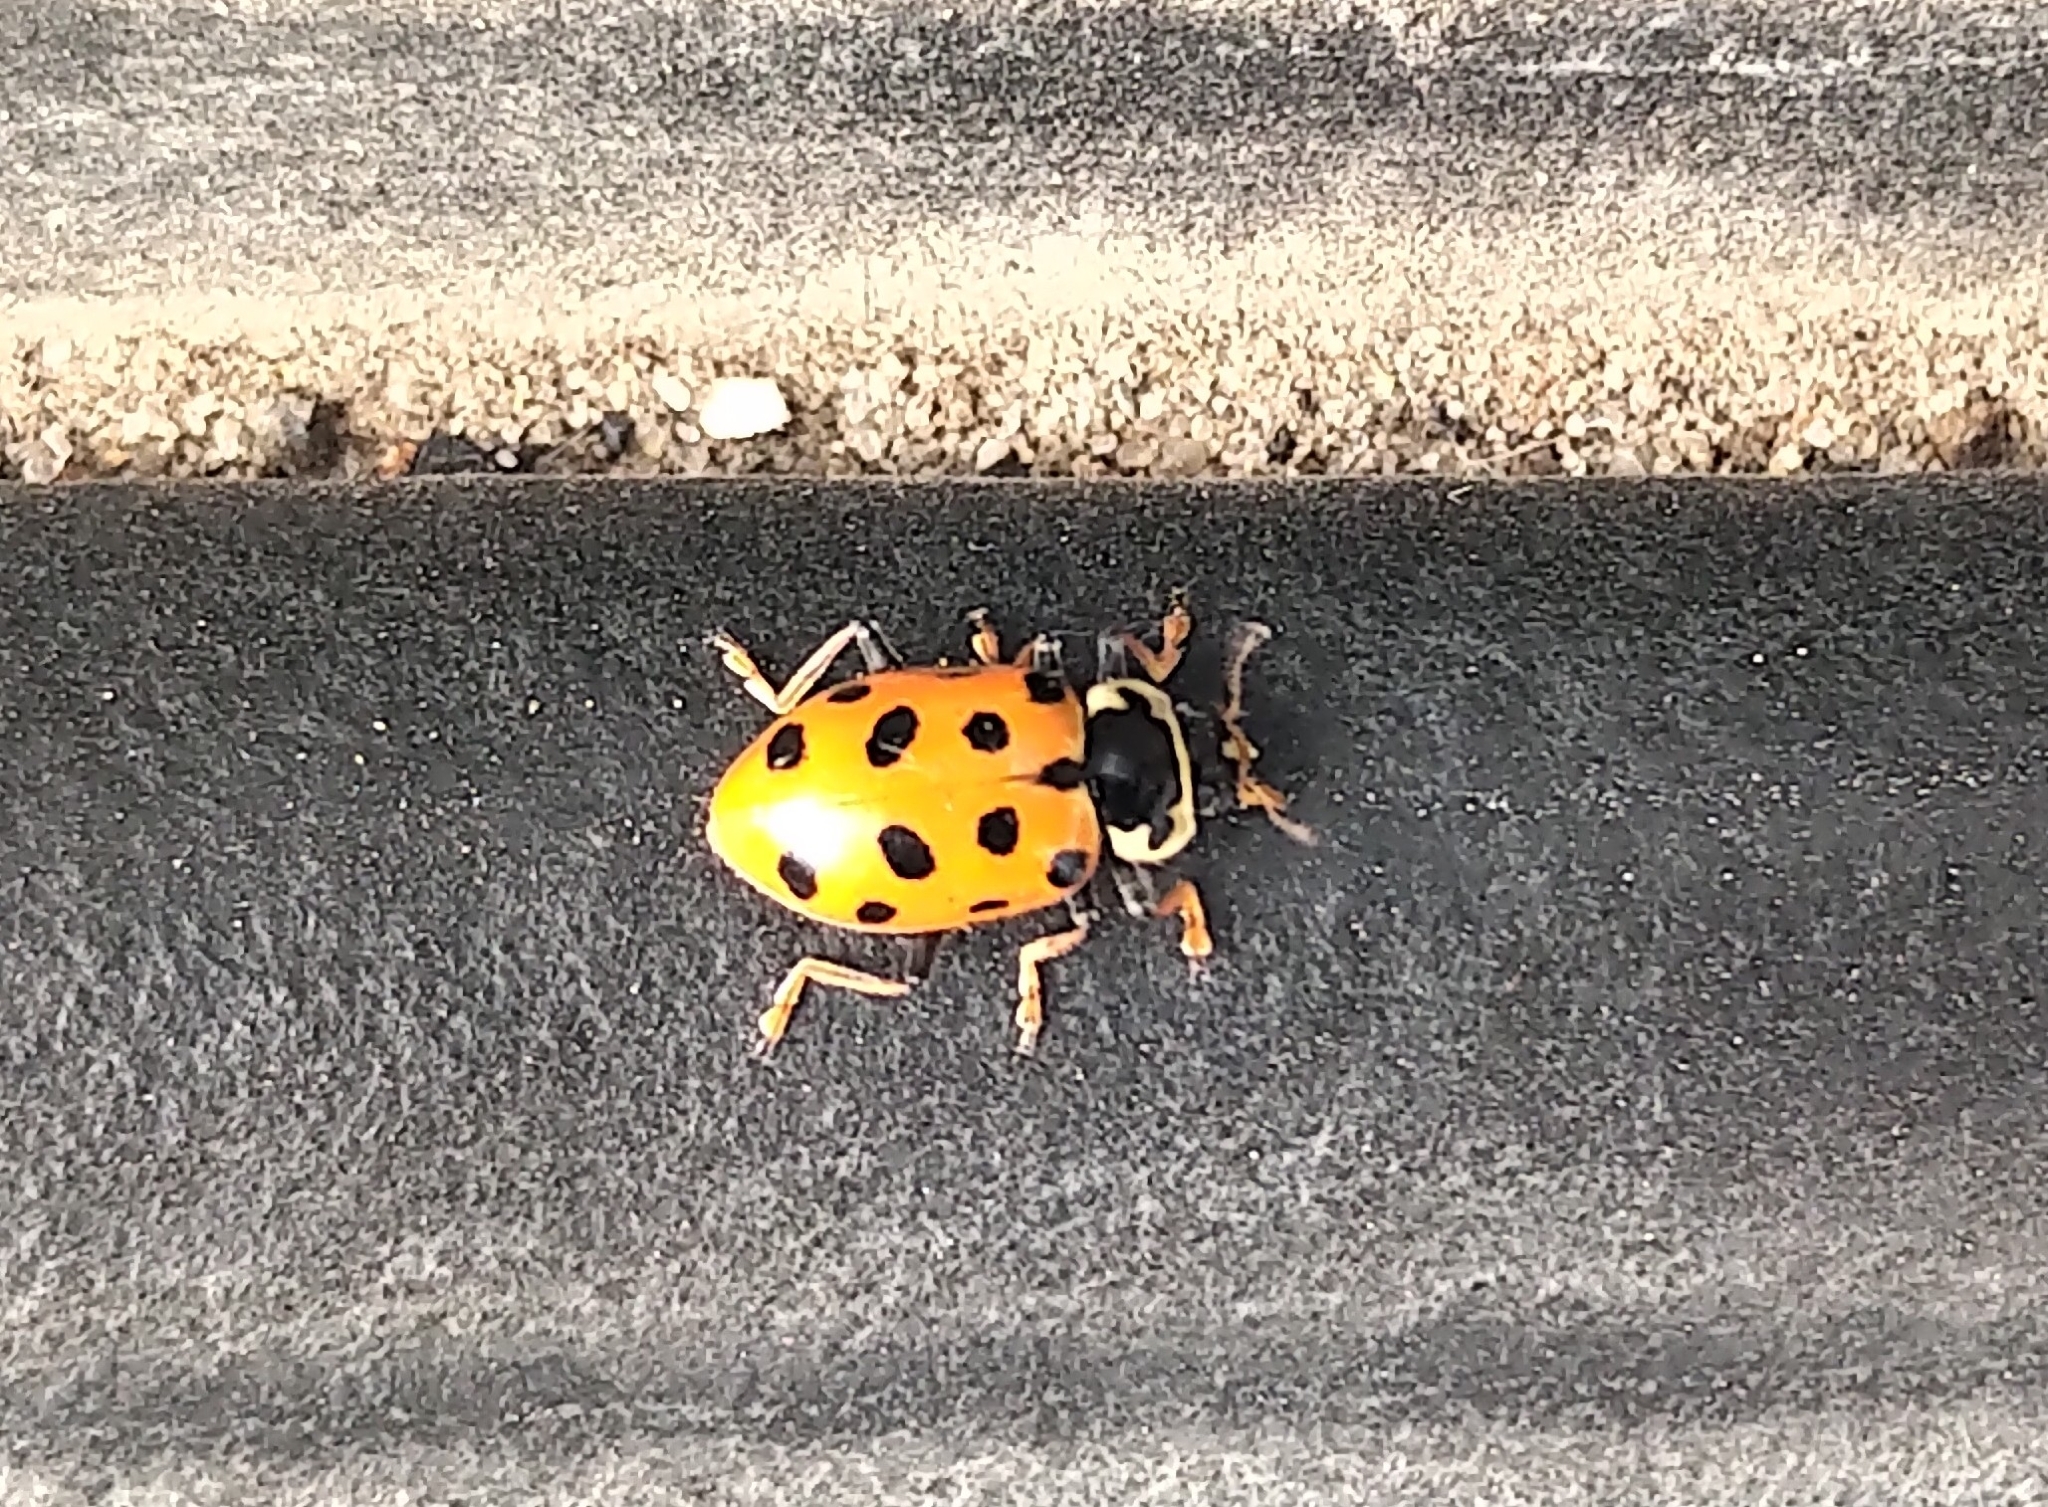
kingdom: Animalia
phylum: Arthropoda
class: Insecta
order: Coleoptera
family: Coccinellidae
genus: Hippodamia
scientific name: Hippodamia tredecimpunctata
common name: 13-spot ladybird
